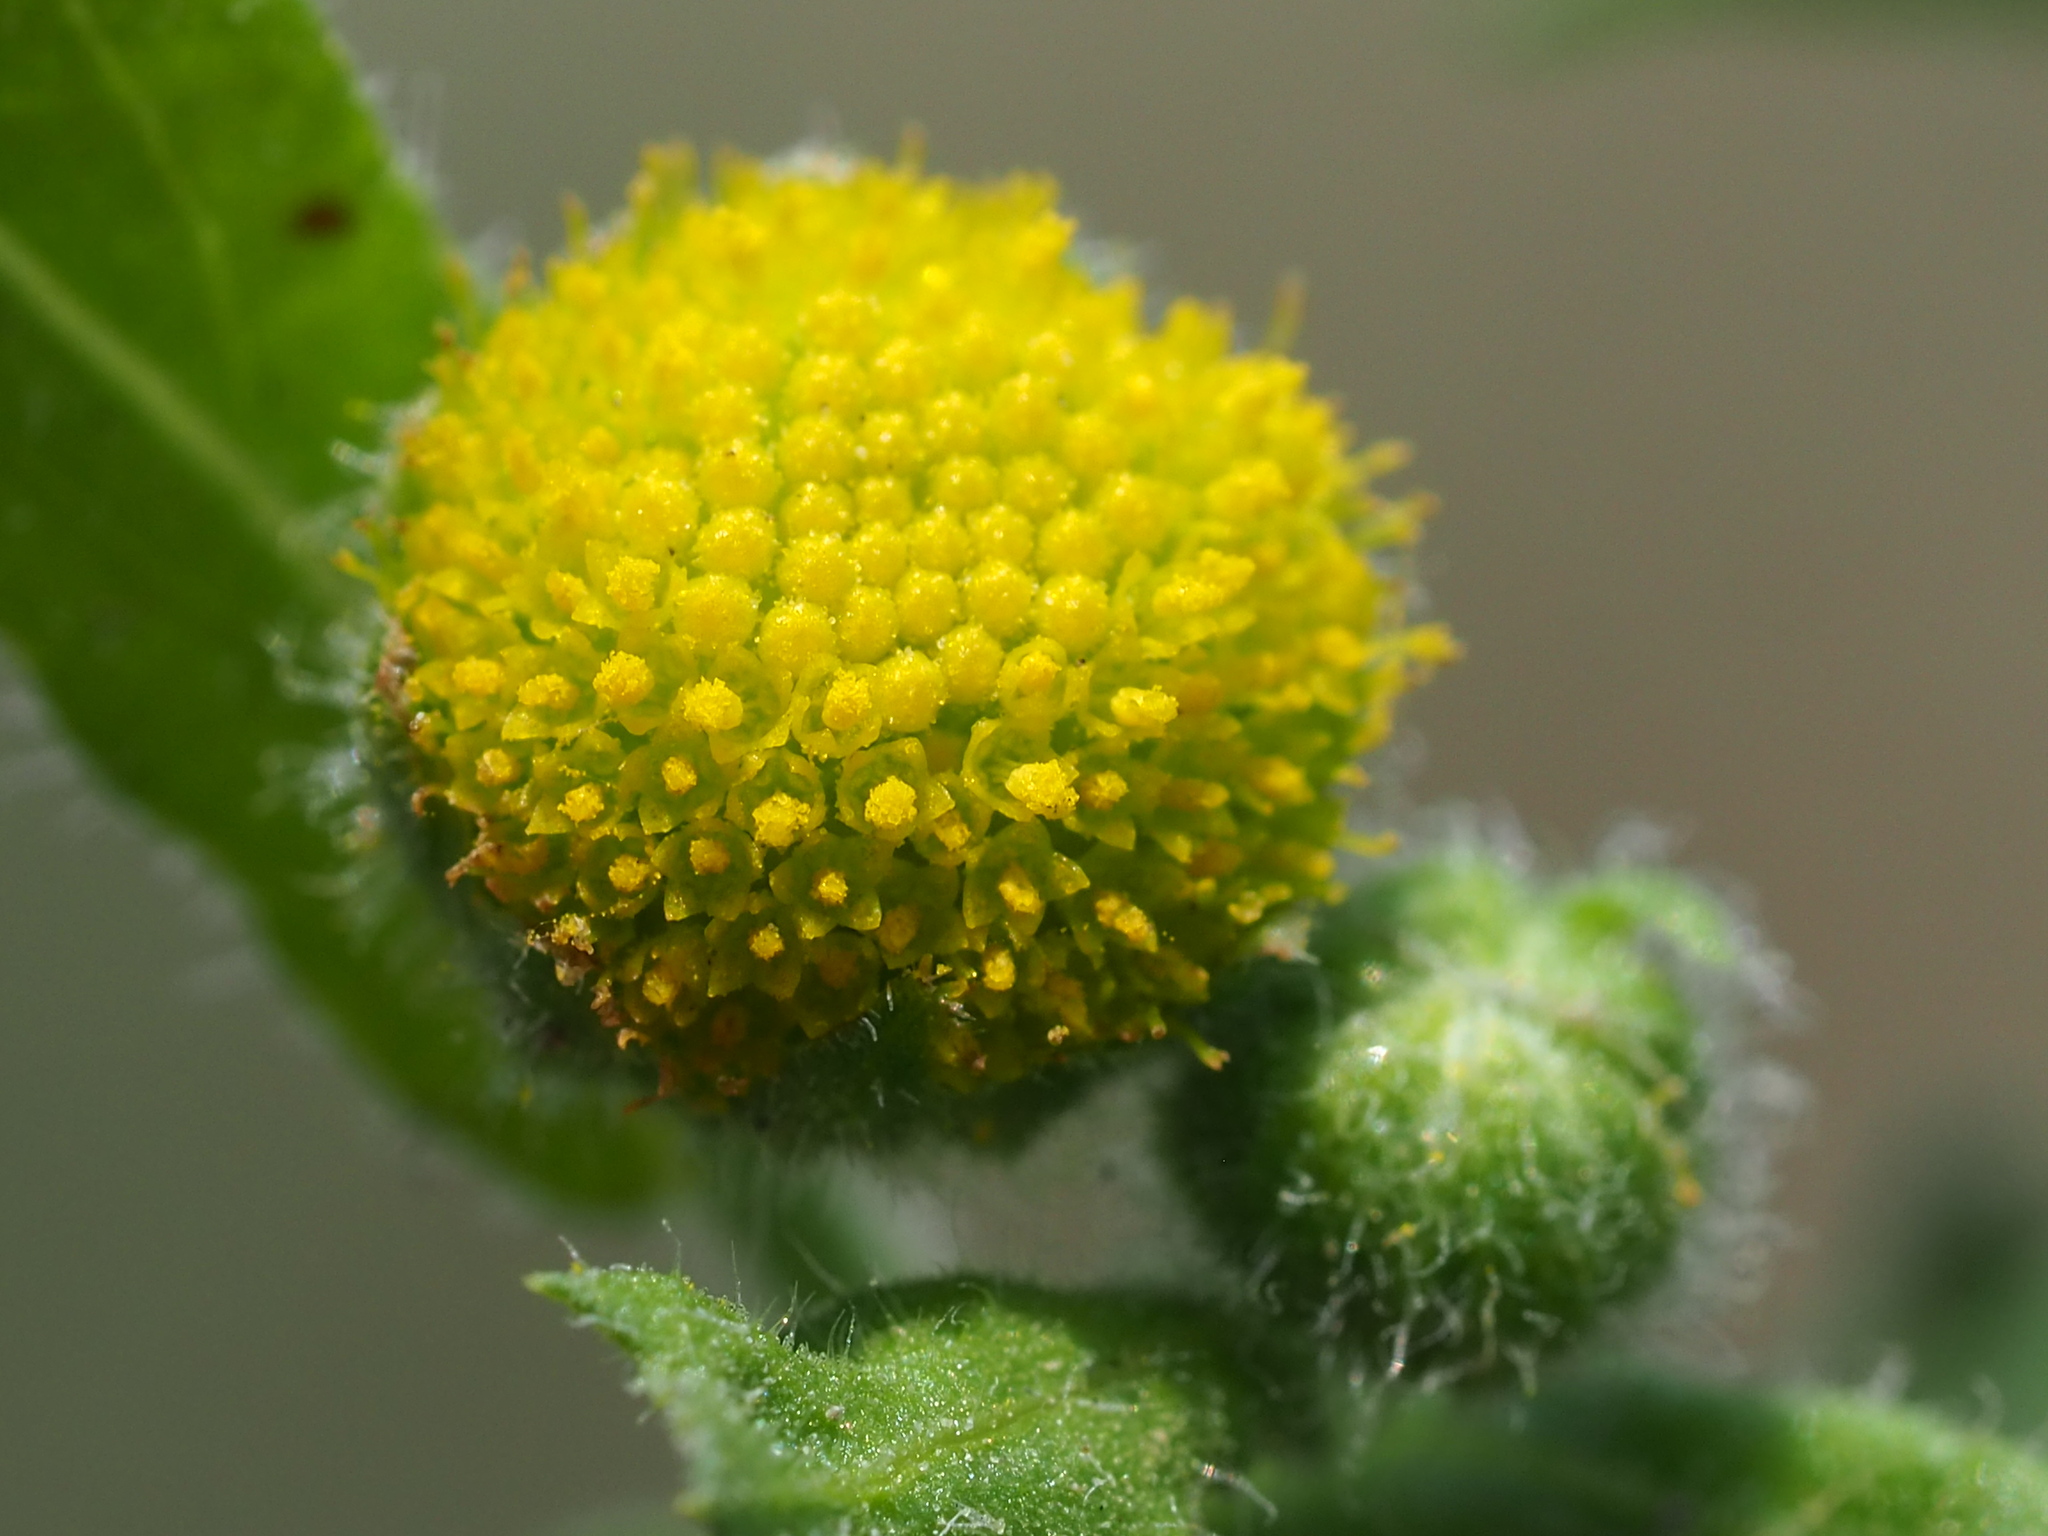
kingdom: Plantae
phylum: Tracheophyta
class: Magnoliopsida
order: Asterales
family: Asteraceae
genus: Grangea
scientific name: Grangea maderaspatana
